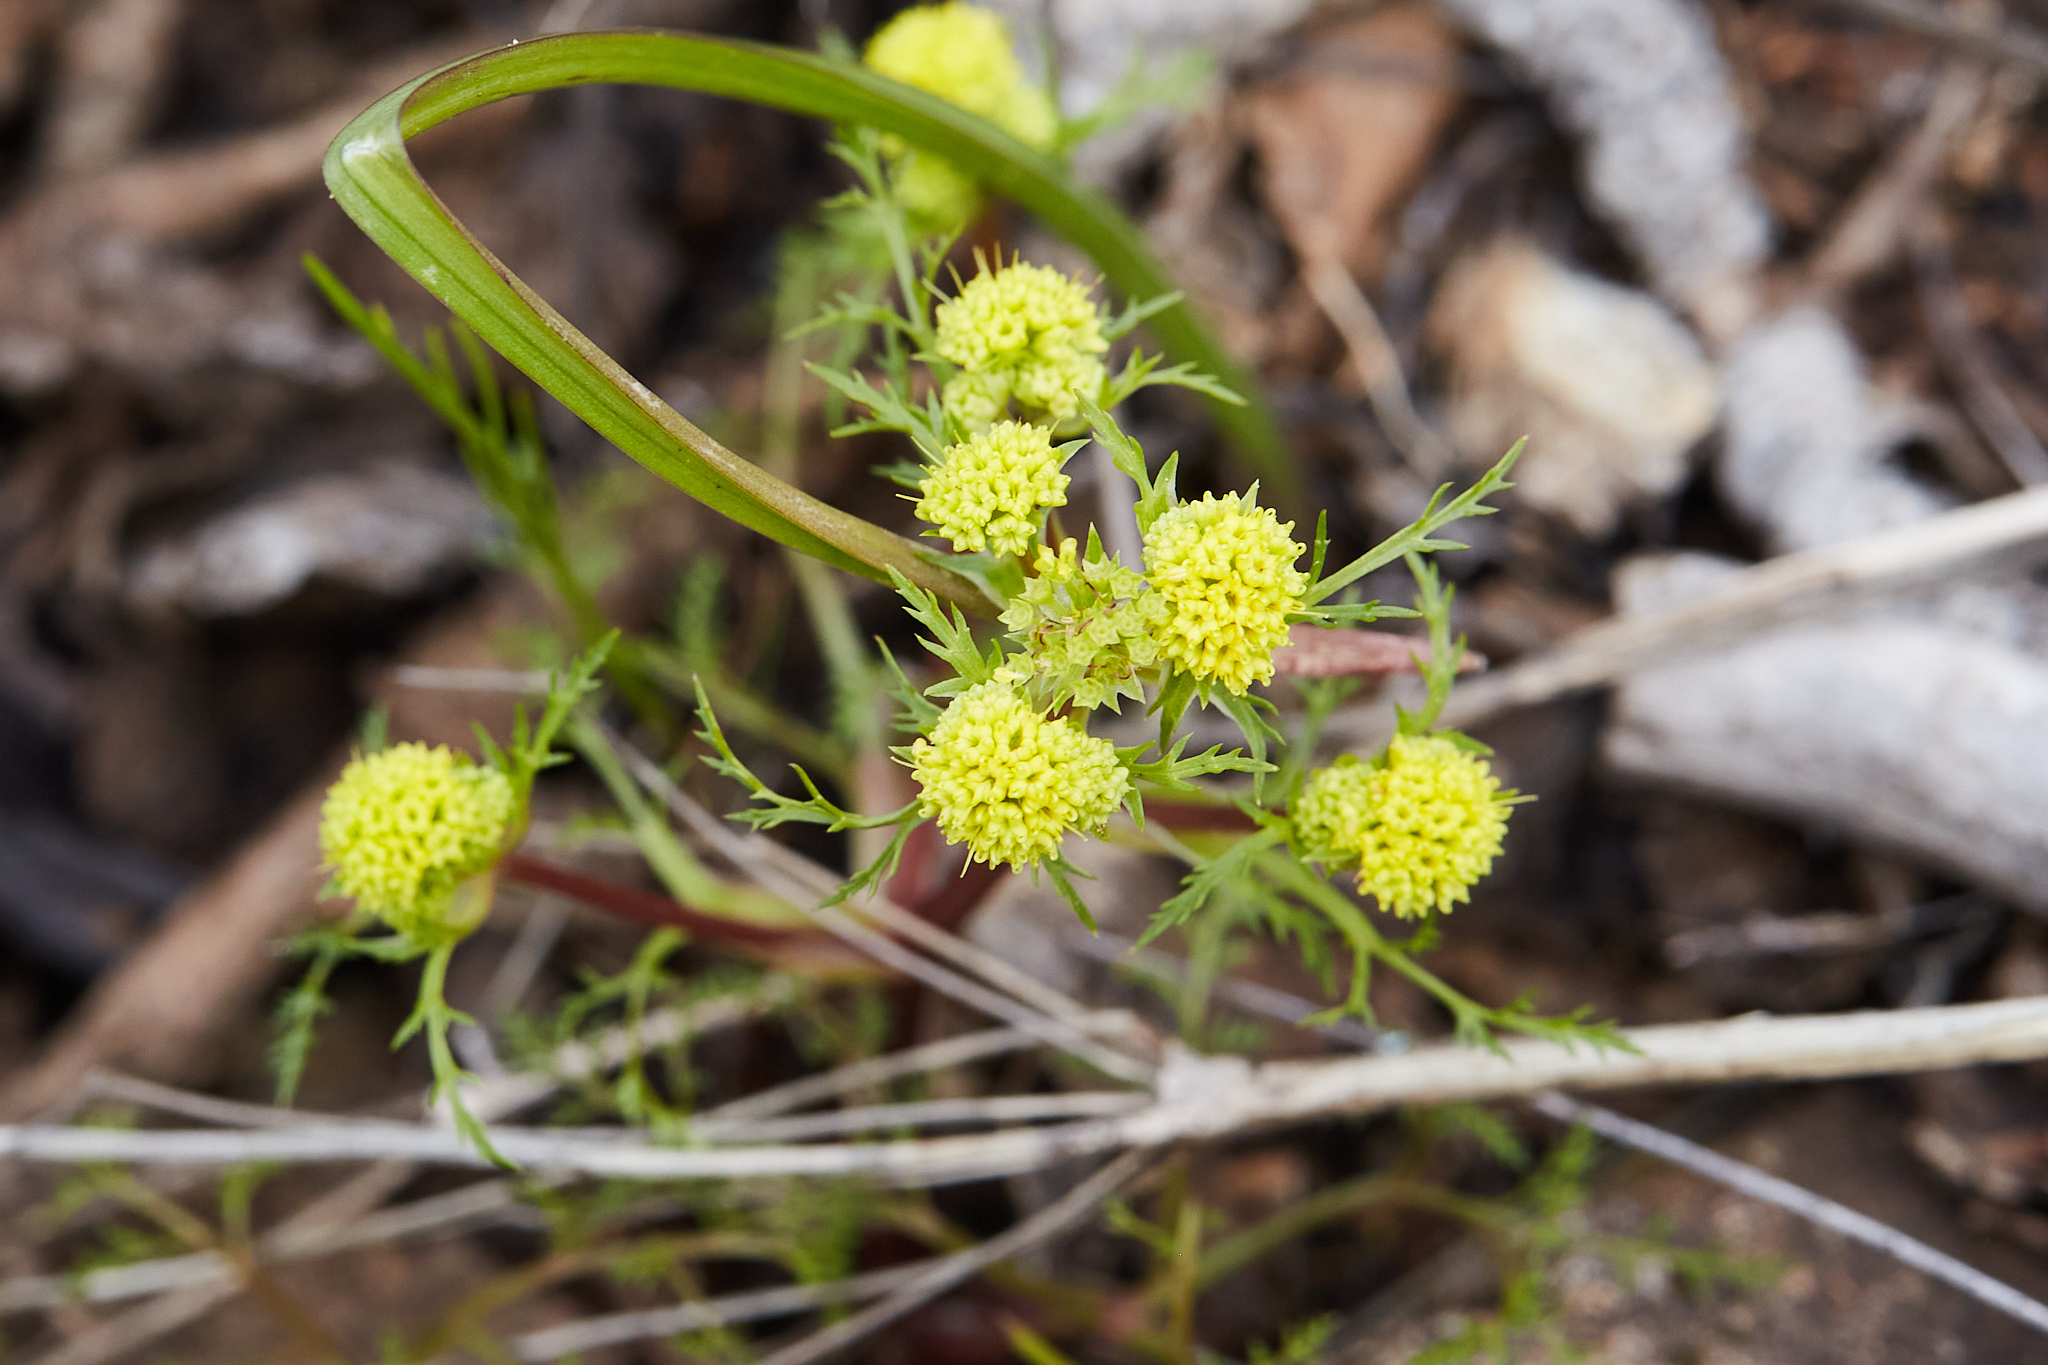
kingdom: Plantae
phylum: Tracheophyta
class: Magnoliopsida
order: Apiales
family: Apiaceae
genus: Sanicula
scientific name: Sanicula tuberosa
